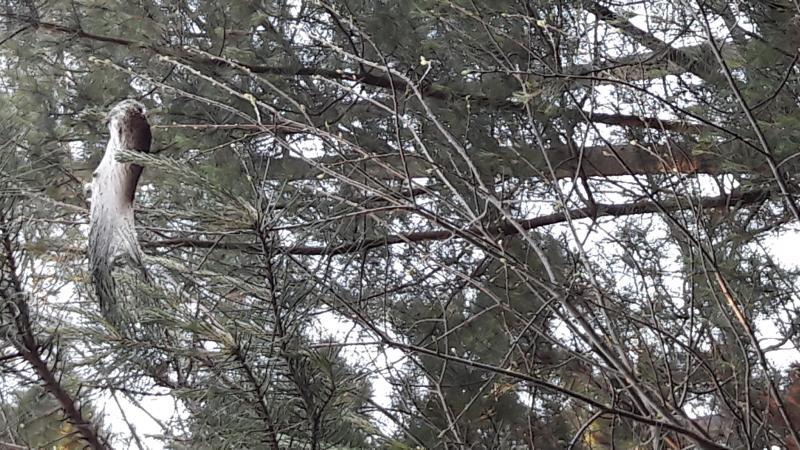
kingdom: Animalia
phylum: Arthropoda
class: Insecta
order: Lepidoptera
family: Notodontidae
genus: Thaumetopoea
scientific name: Thaumetopoea pityocampa
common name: Pine processionary
